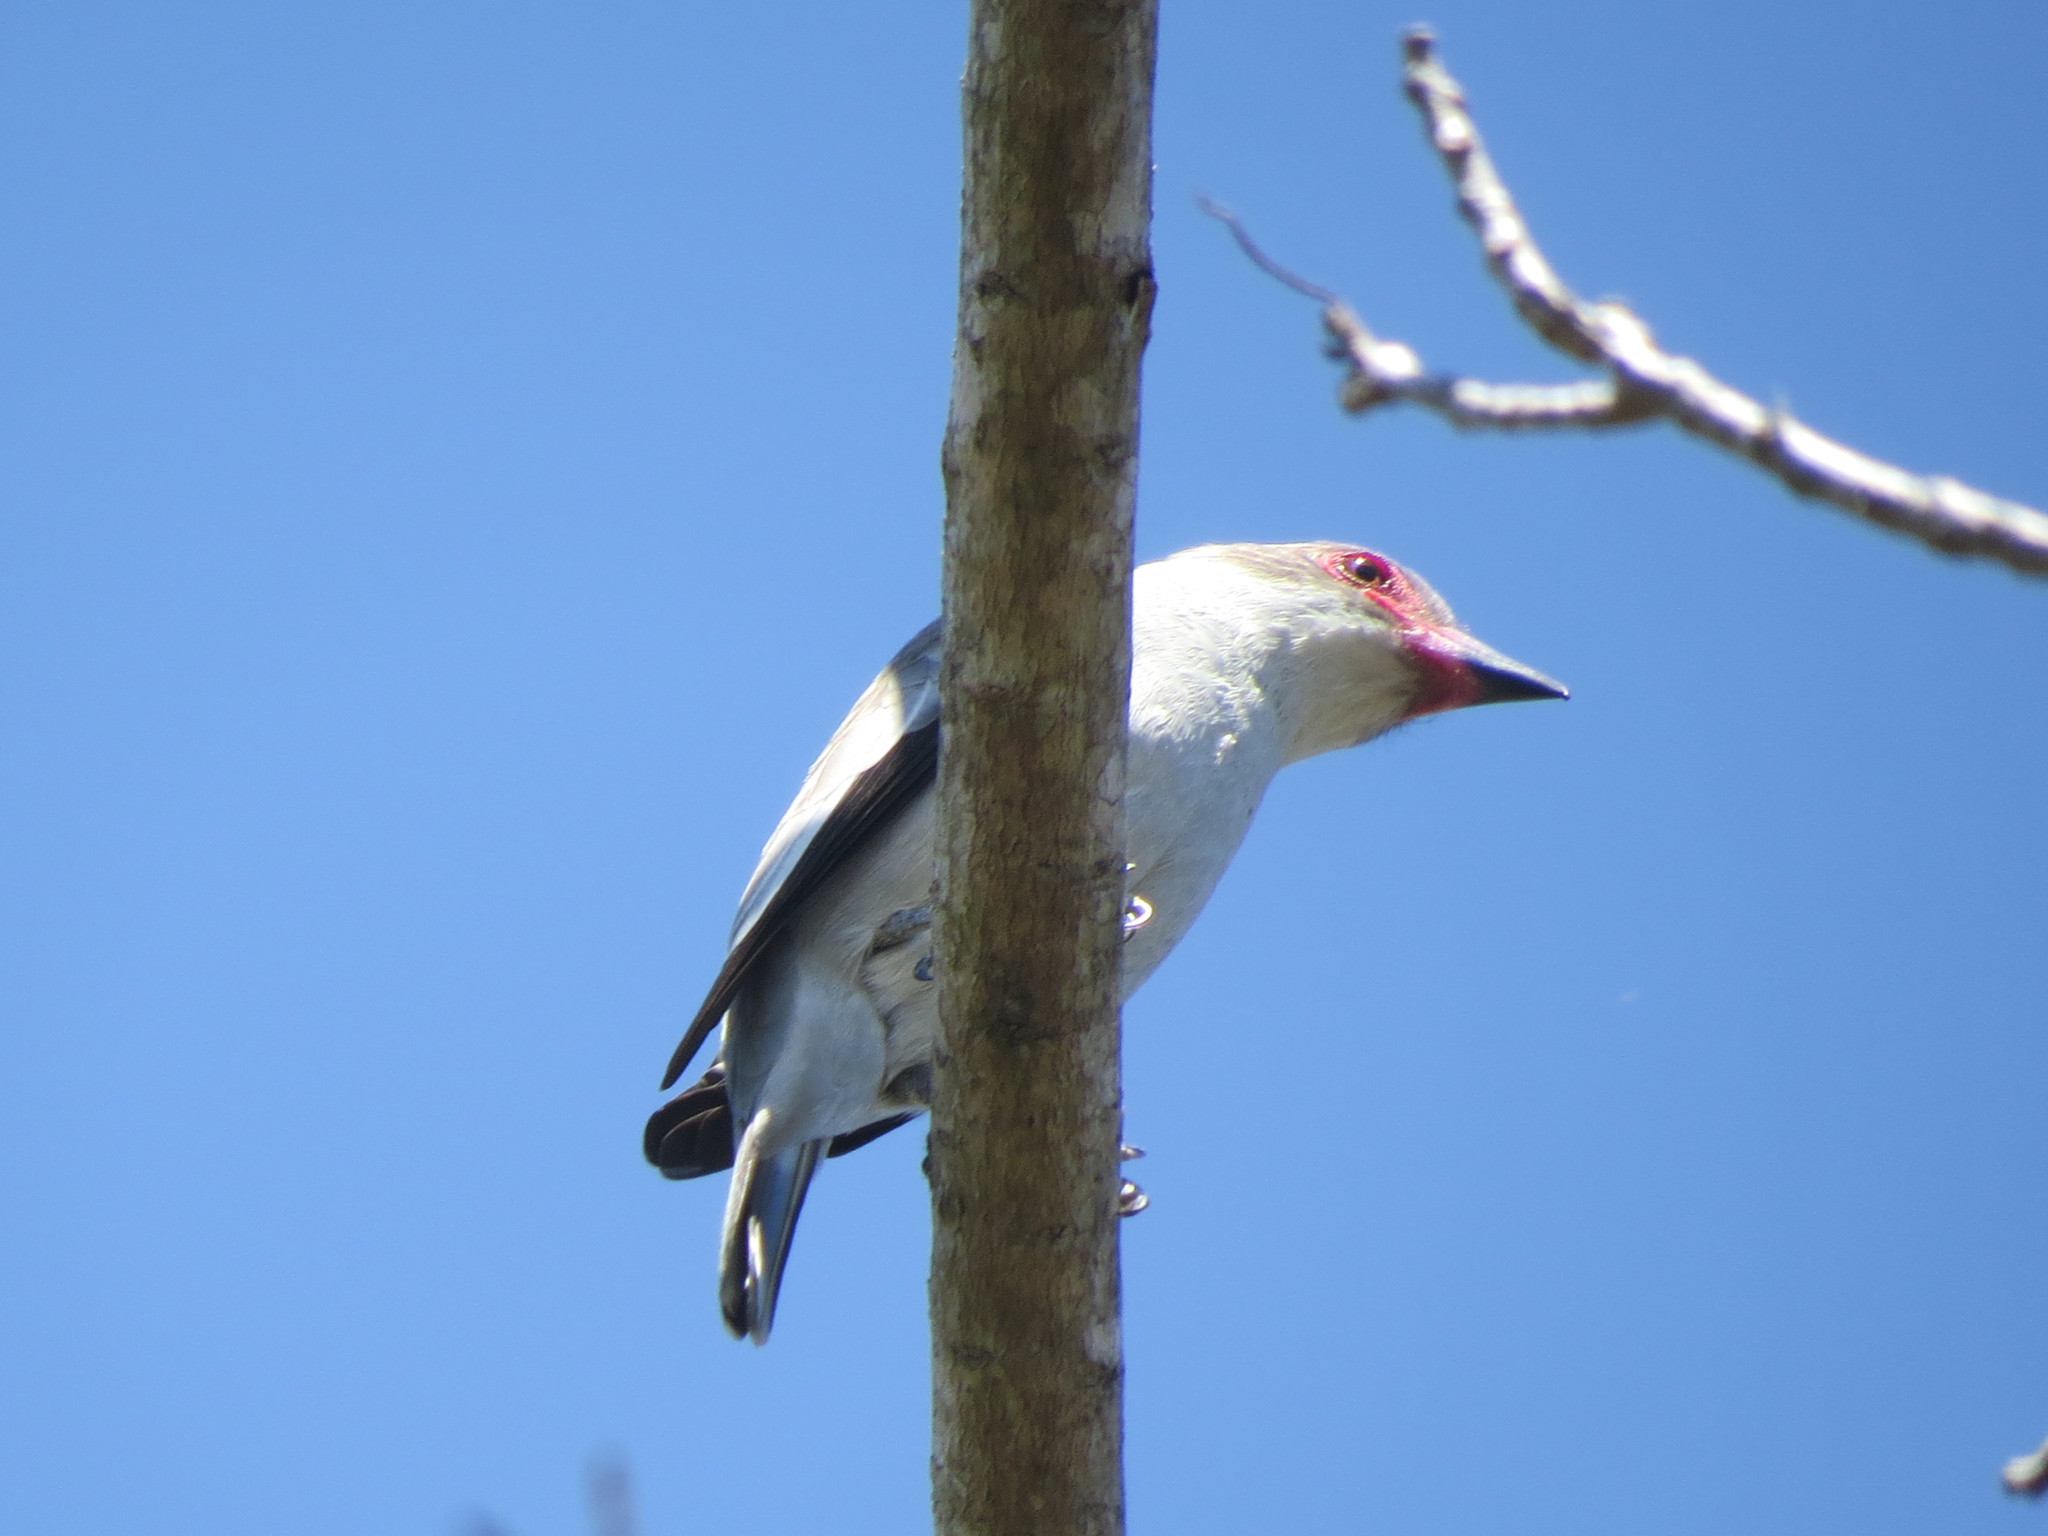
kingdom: Animalia
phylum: Chordata
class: Aves
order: Passeriformes
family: Cotingidae
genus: Tityra
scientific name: Tityra semifasciata
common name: Masked tityra
